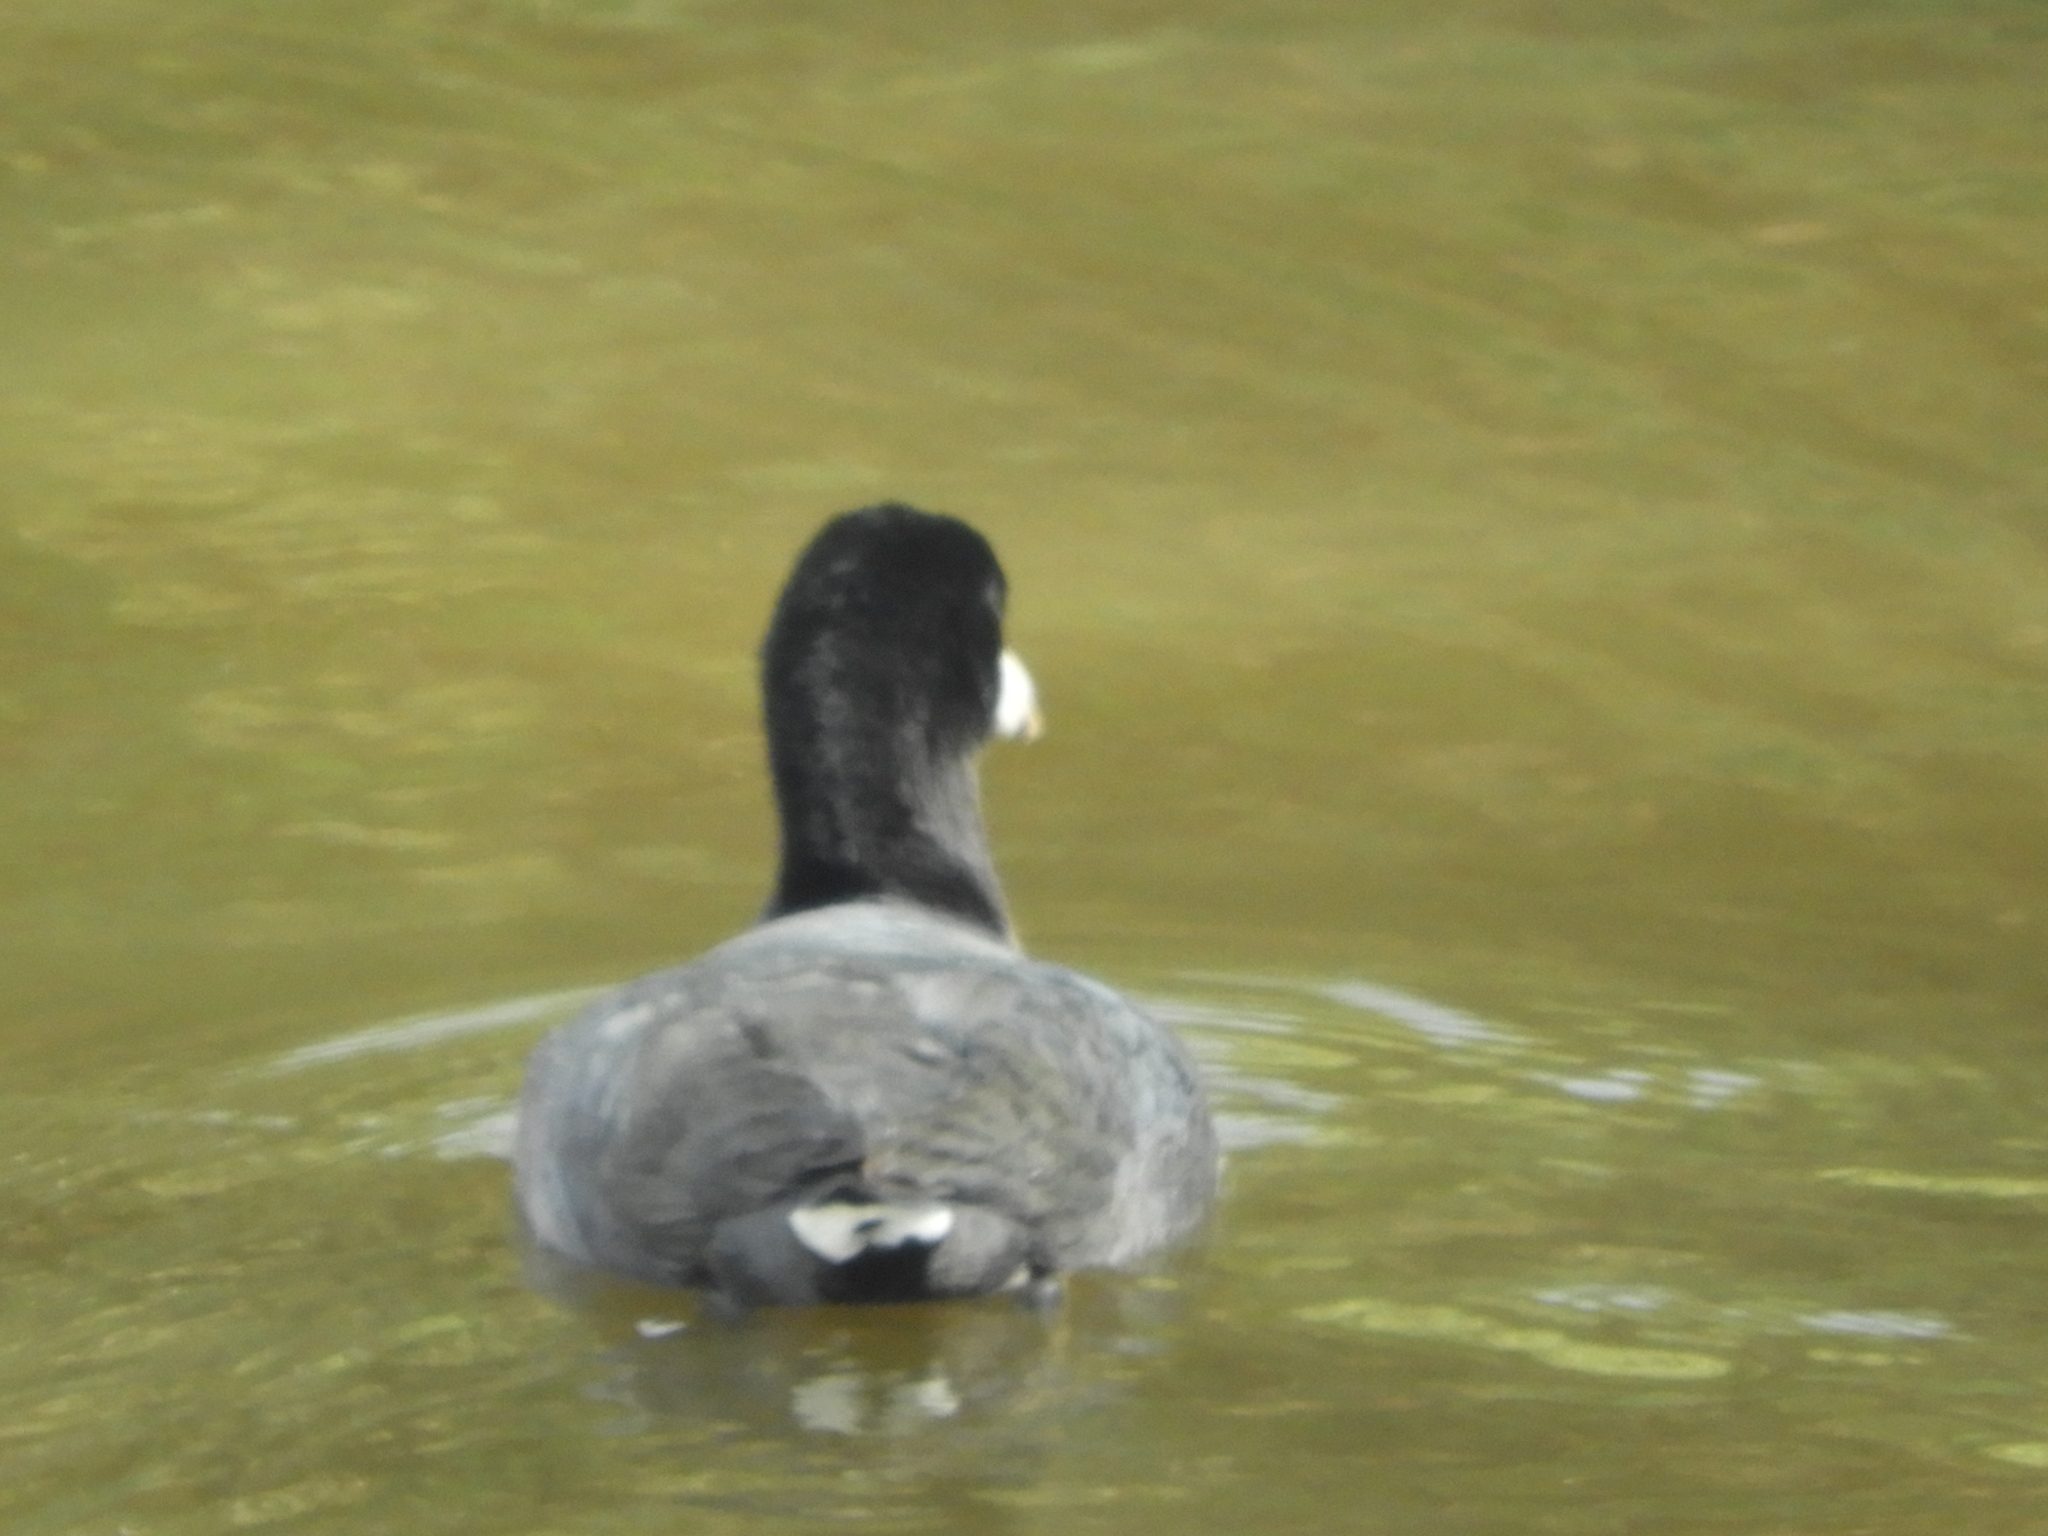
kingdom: Animalia
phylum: Chordata
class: Aves
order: Gruiformes
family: Rallidae
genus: Fulica
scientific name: Fulica americana
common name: American coot
